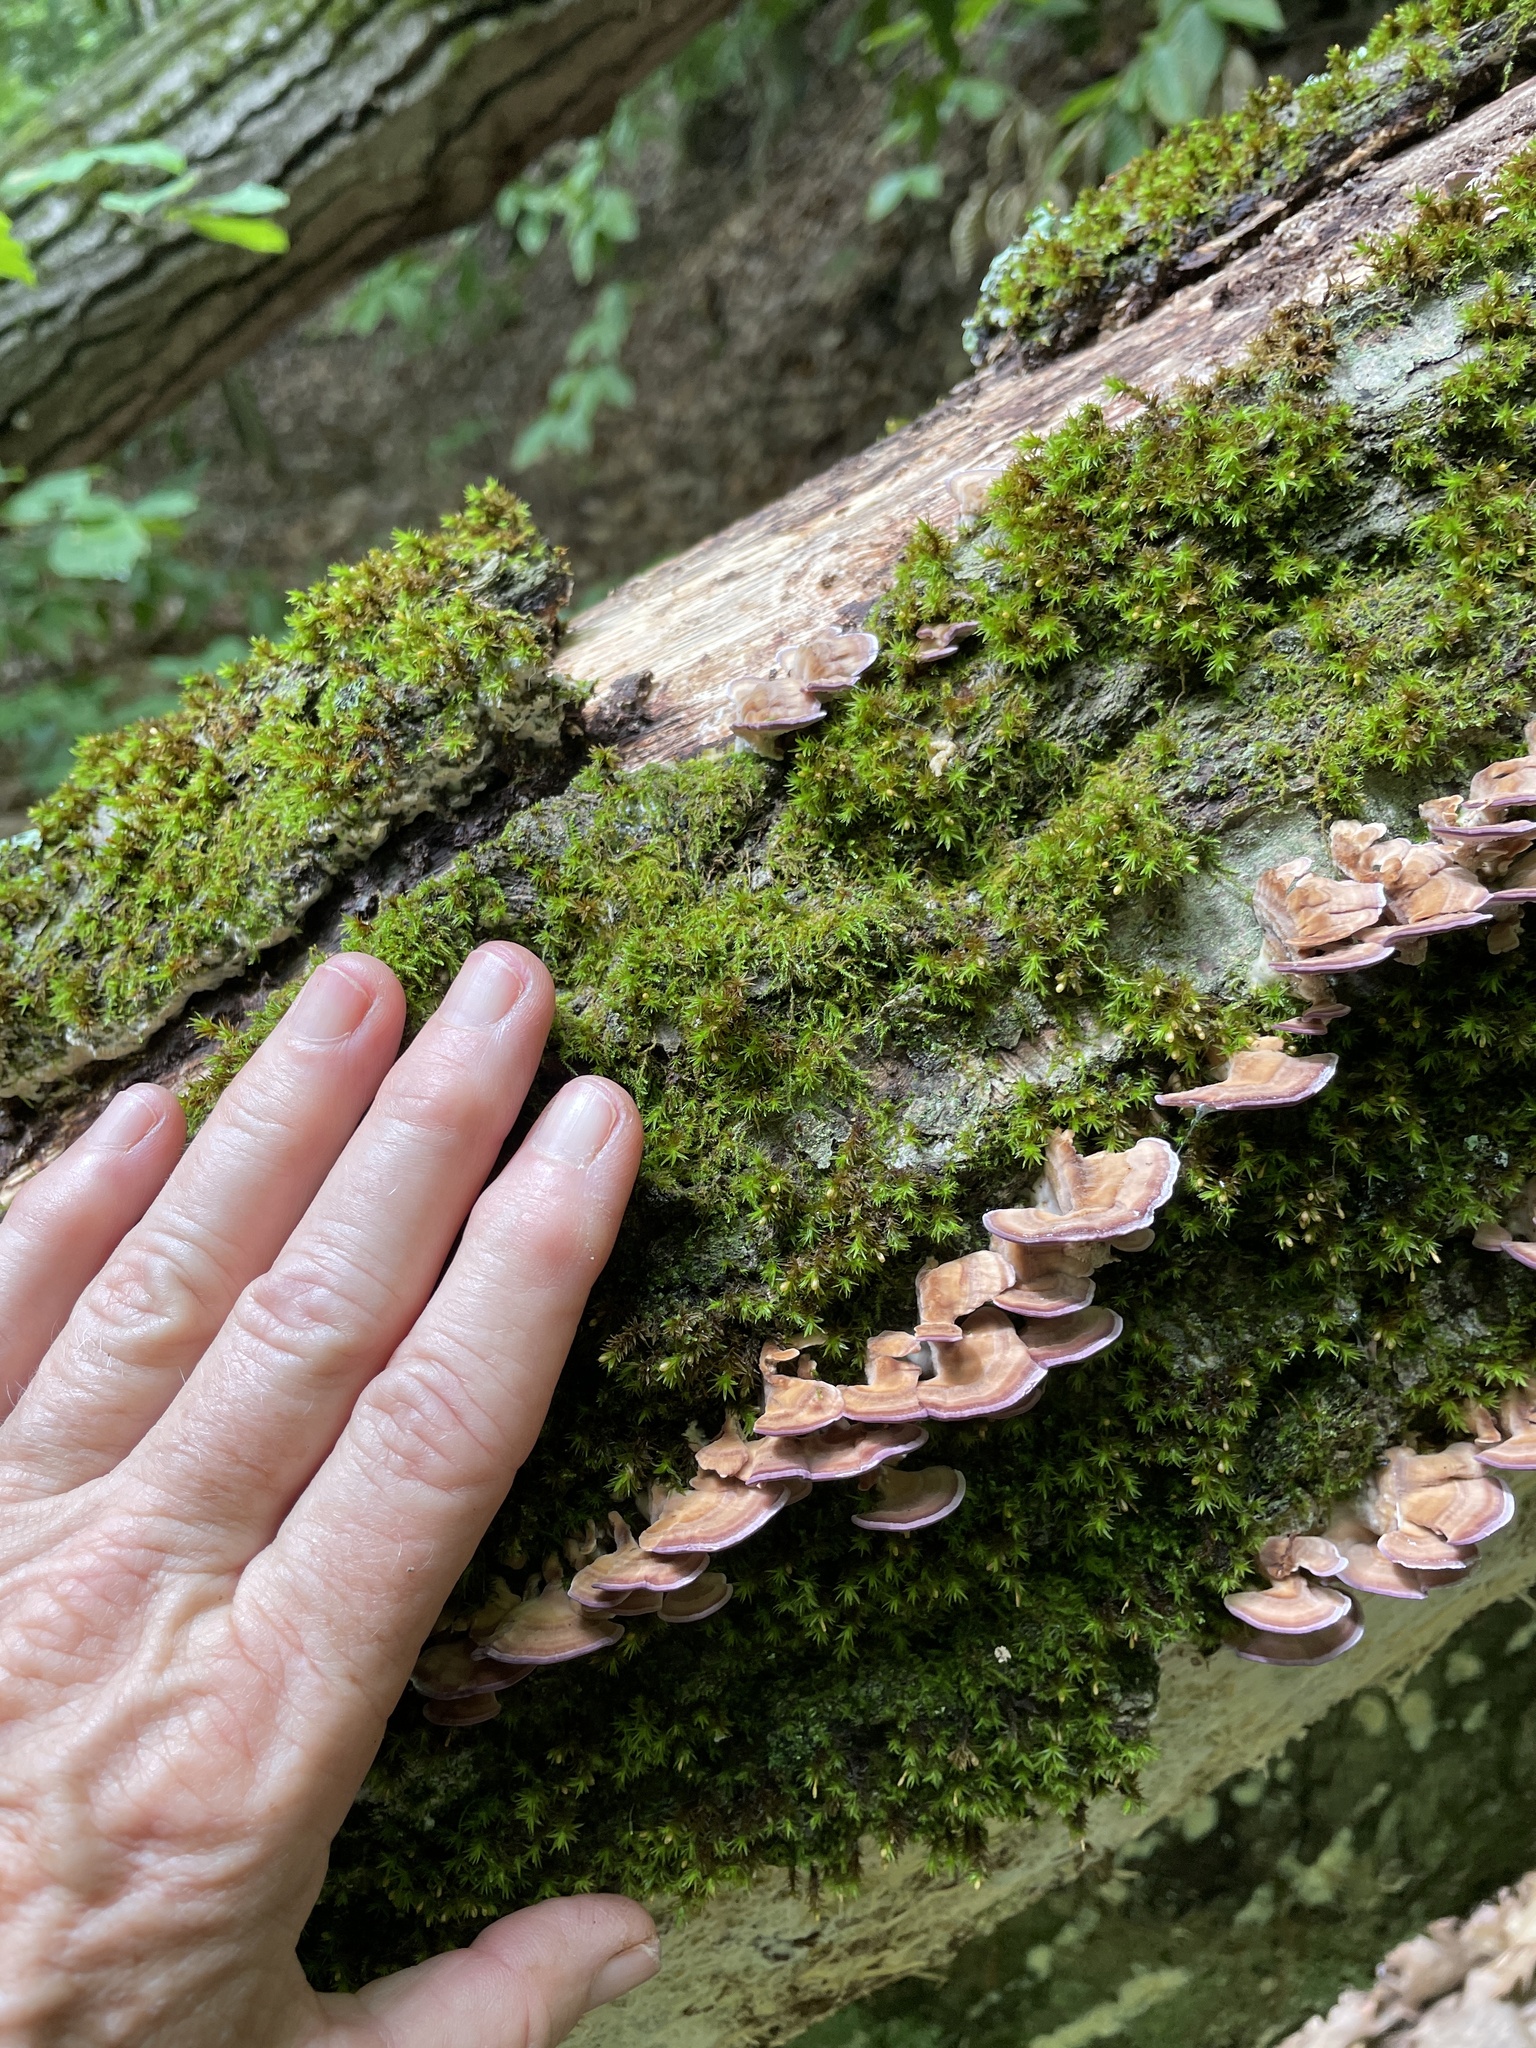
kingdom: Fungi
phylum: Basidiomycota
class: Agaricomycetes
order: Hymenochaetales
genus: Trichaptum
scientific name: Trichaptum biforme
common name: Violet-toothed polypore
